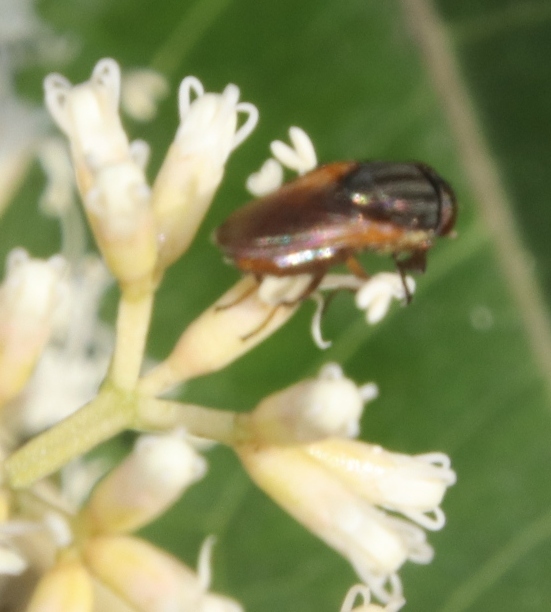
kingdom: Animalia
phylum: Arthropoda
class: Insecta
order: Diptera
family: Calliphoridae
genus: Fainia
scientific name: Fainia albitarsis
